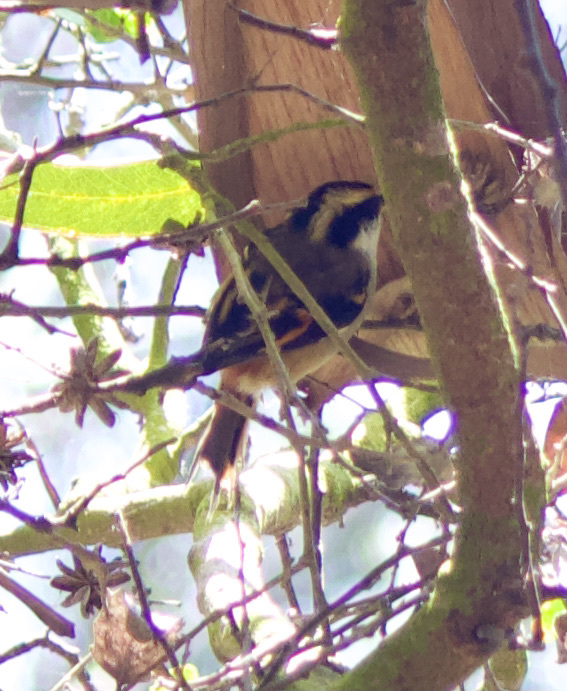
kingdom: Animalia
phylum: Chordata
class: Aves
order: Passeriformes
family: Furnariidae
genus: Aphrastura
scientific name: Aphrastura spinicauda
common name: Thorn-tailed rayadito
